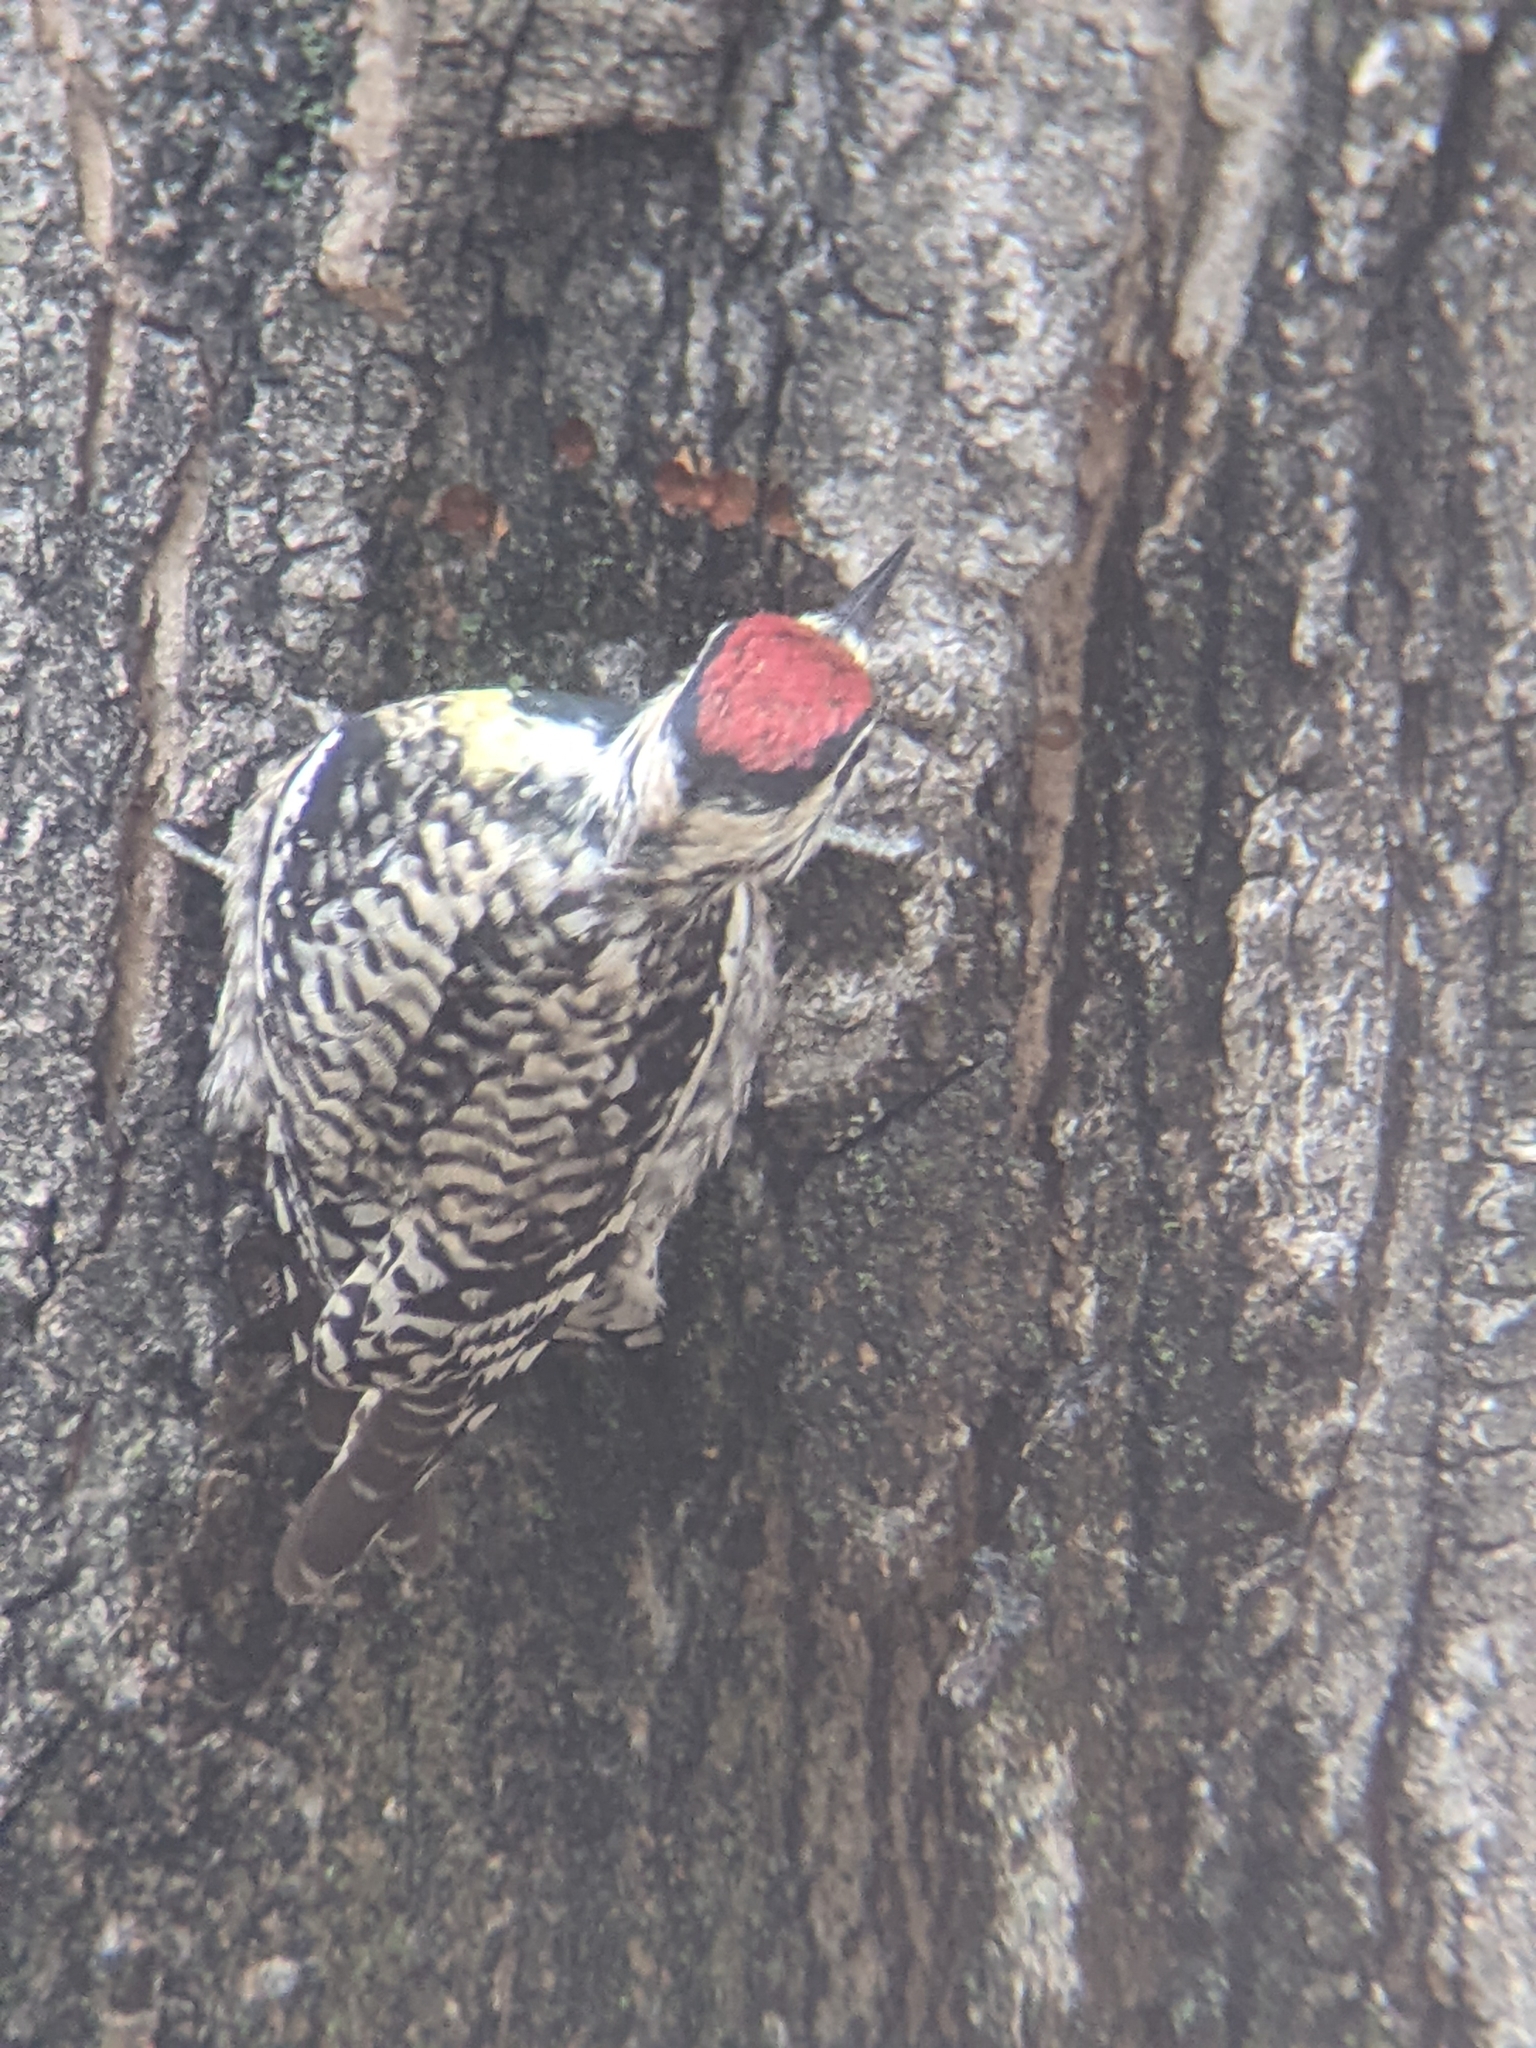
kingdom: Animalia
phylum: Chordata
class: Aves
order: Piciformes
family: Picidae
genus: Sphyrapicus
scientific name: Sphyrapicus varius
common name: Yellow-bellied sapsucker
